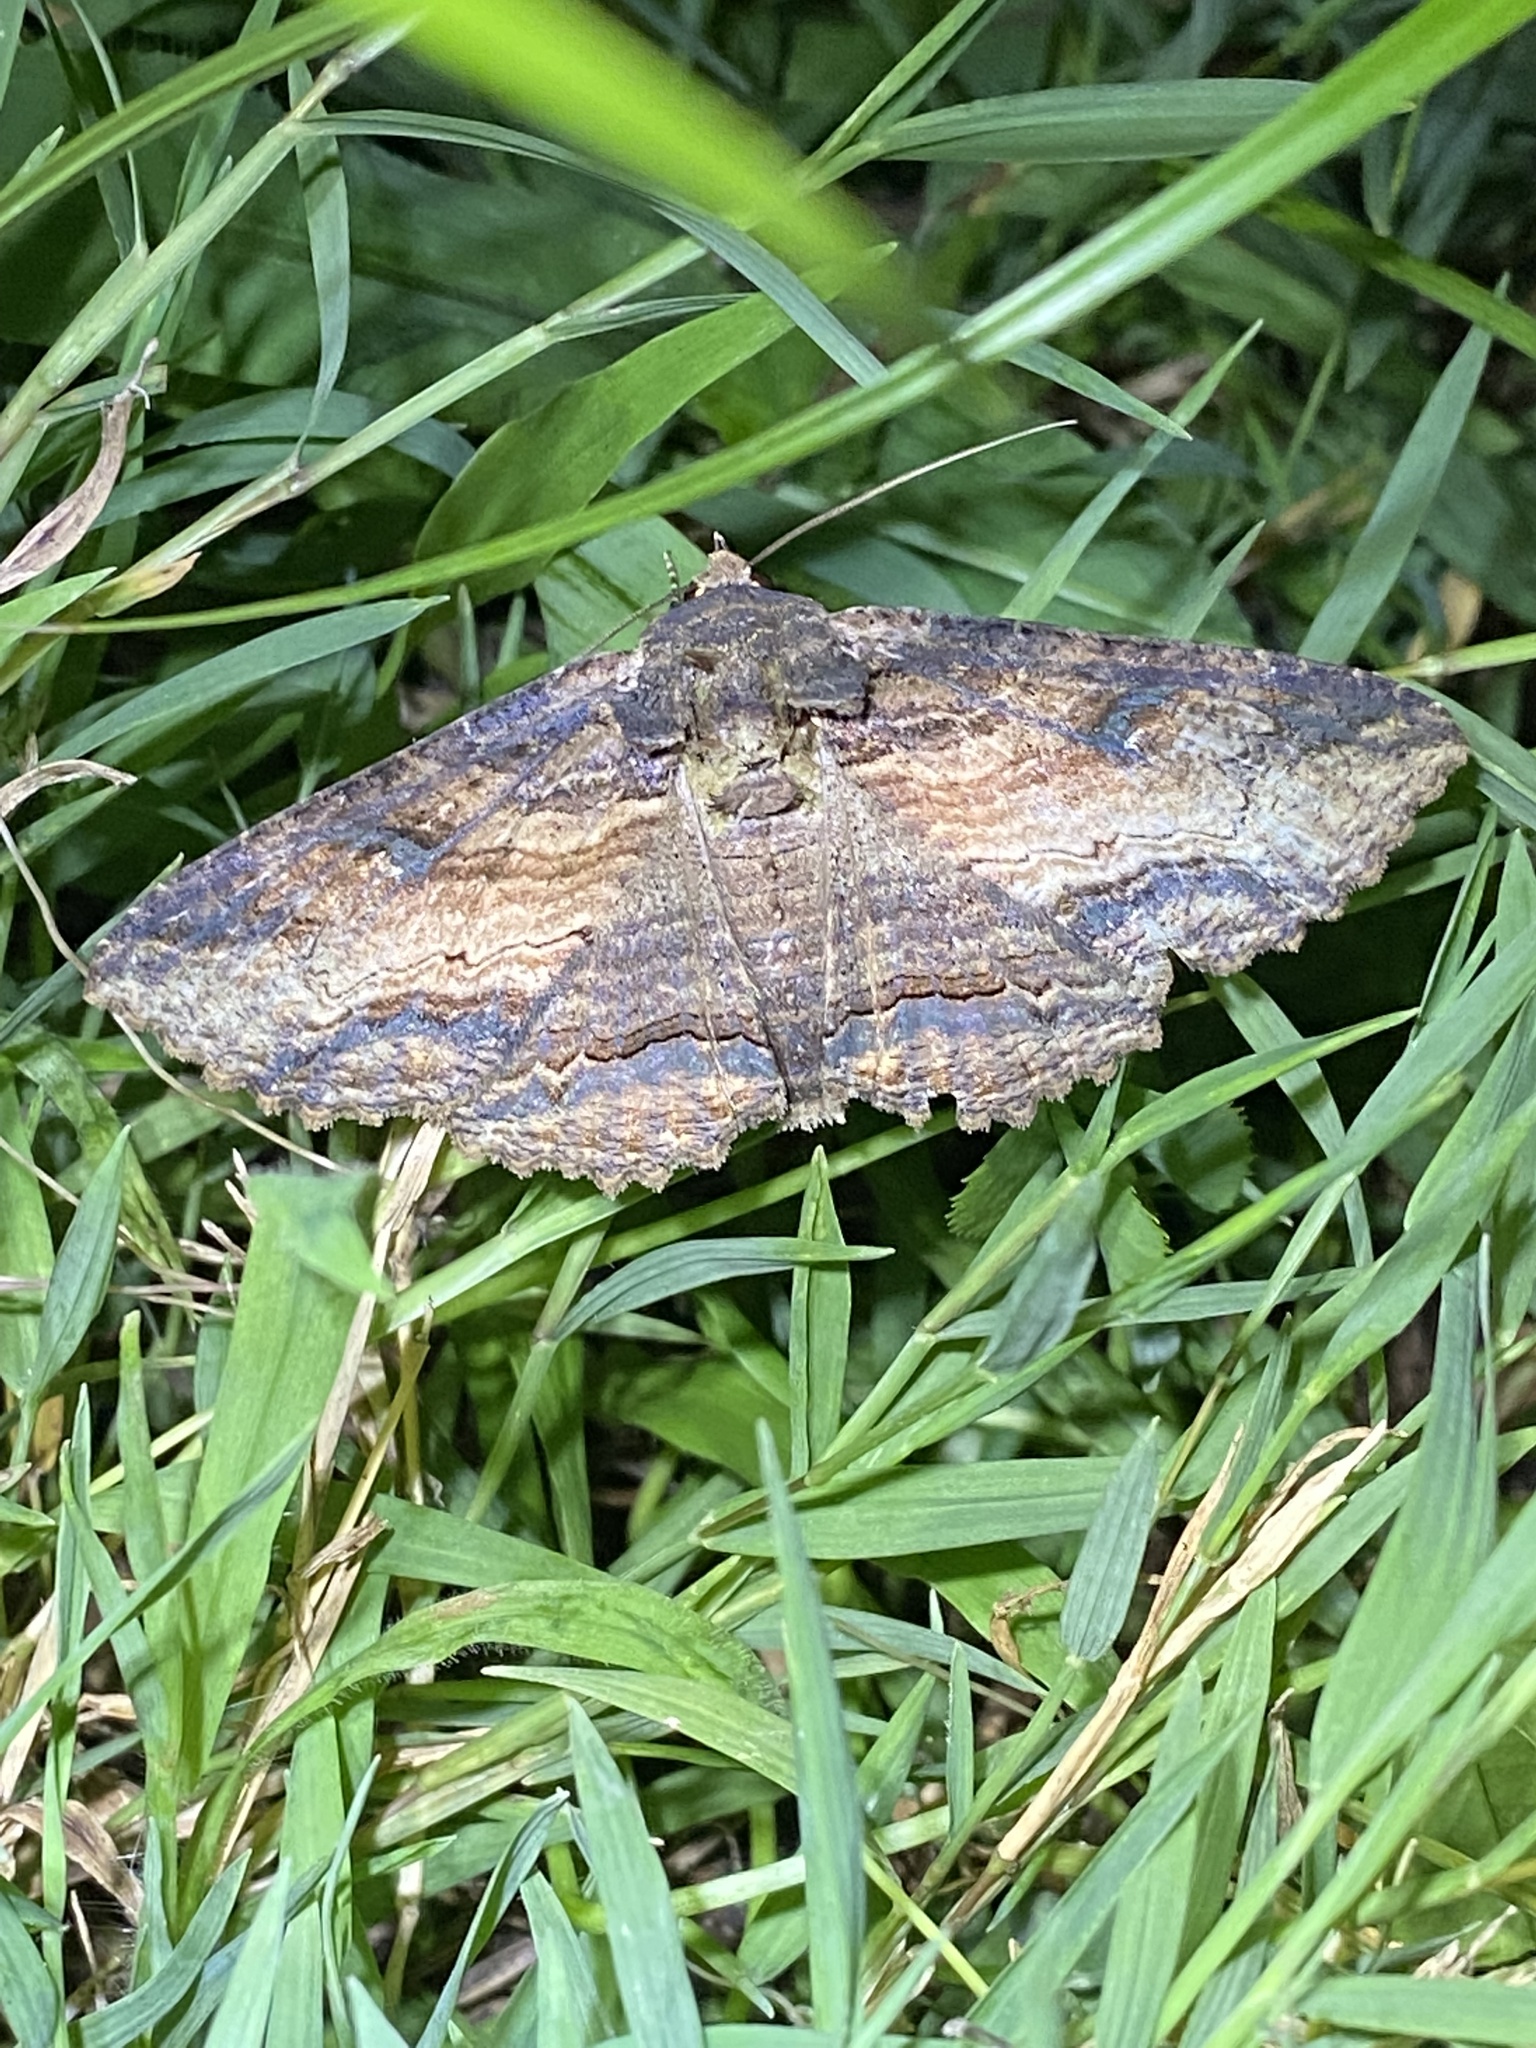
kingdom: Animalia
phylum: Arthropoda
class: Insecta
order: Lepidoptera
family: Erebidae
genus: Zale
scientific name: Zale lunata
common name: Lunate zale moth
